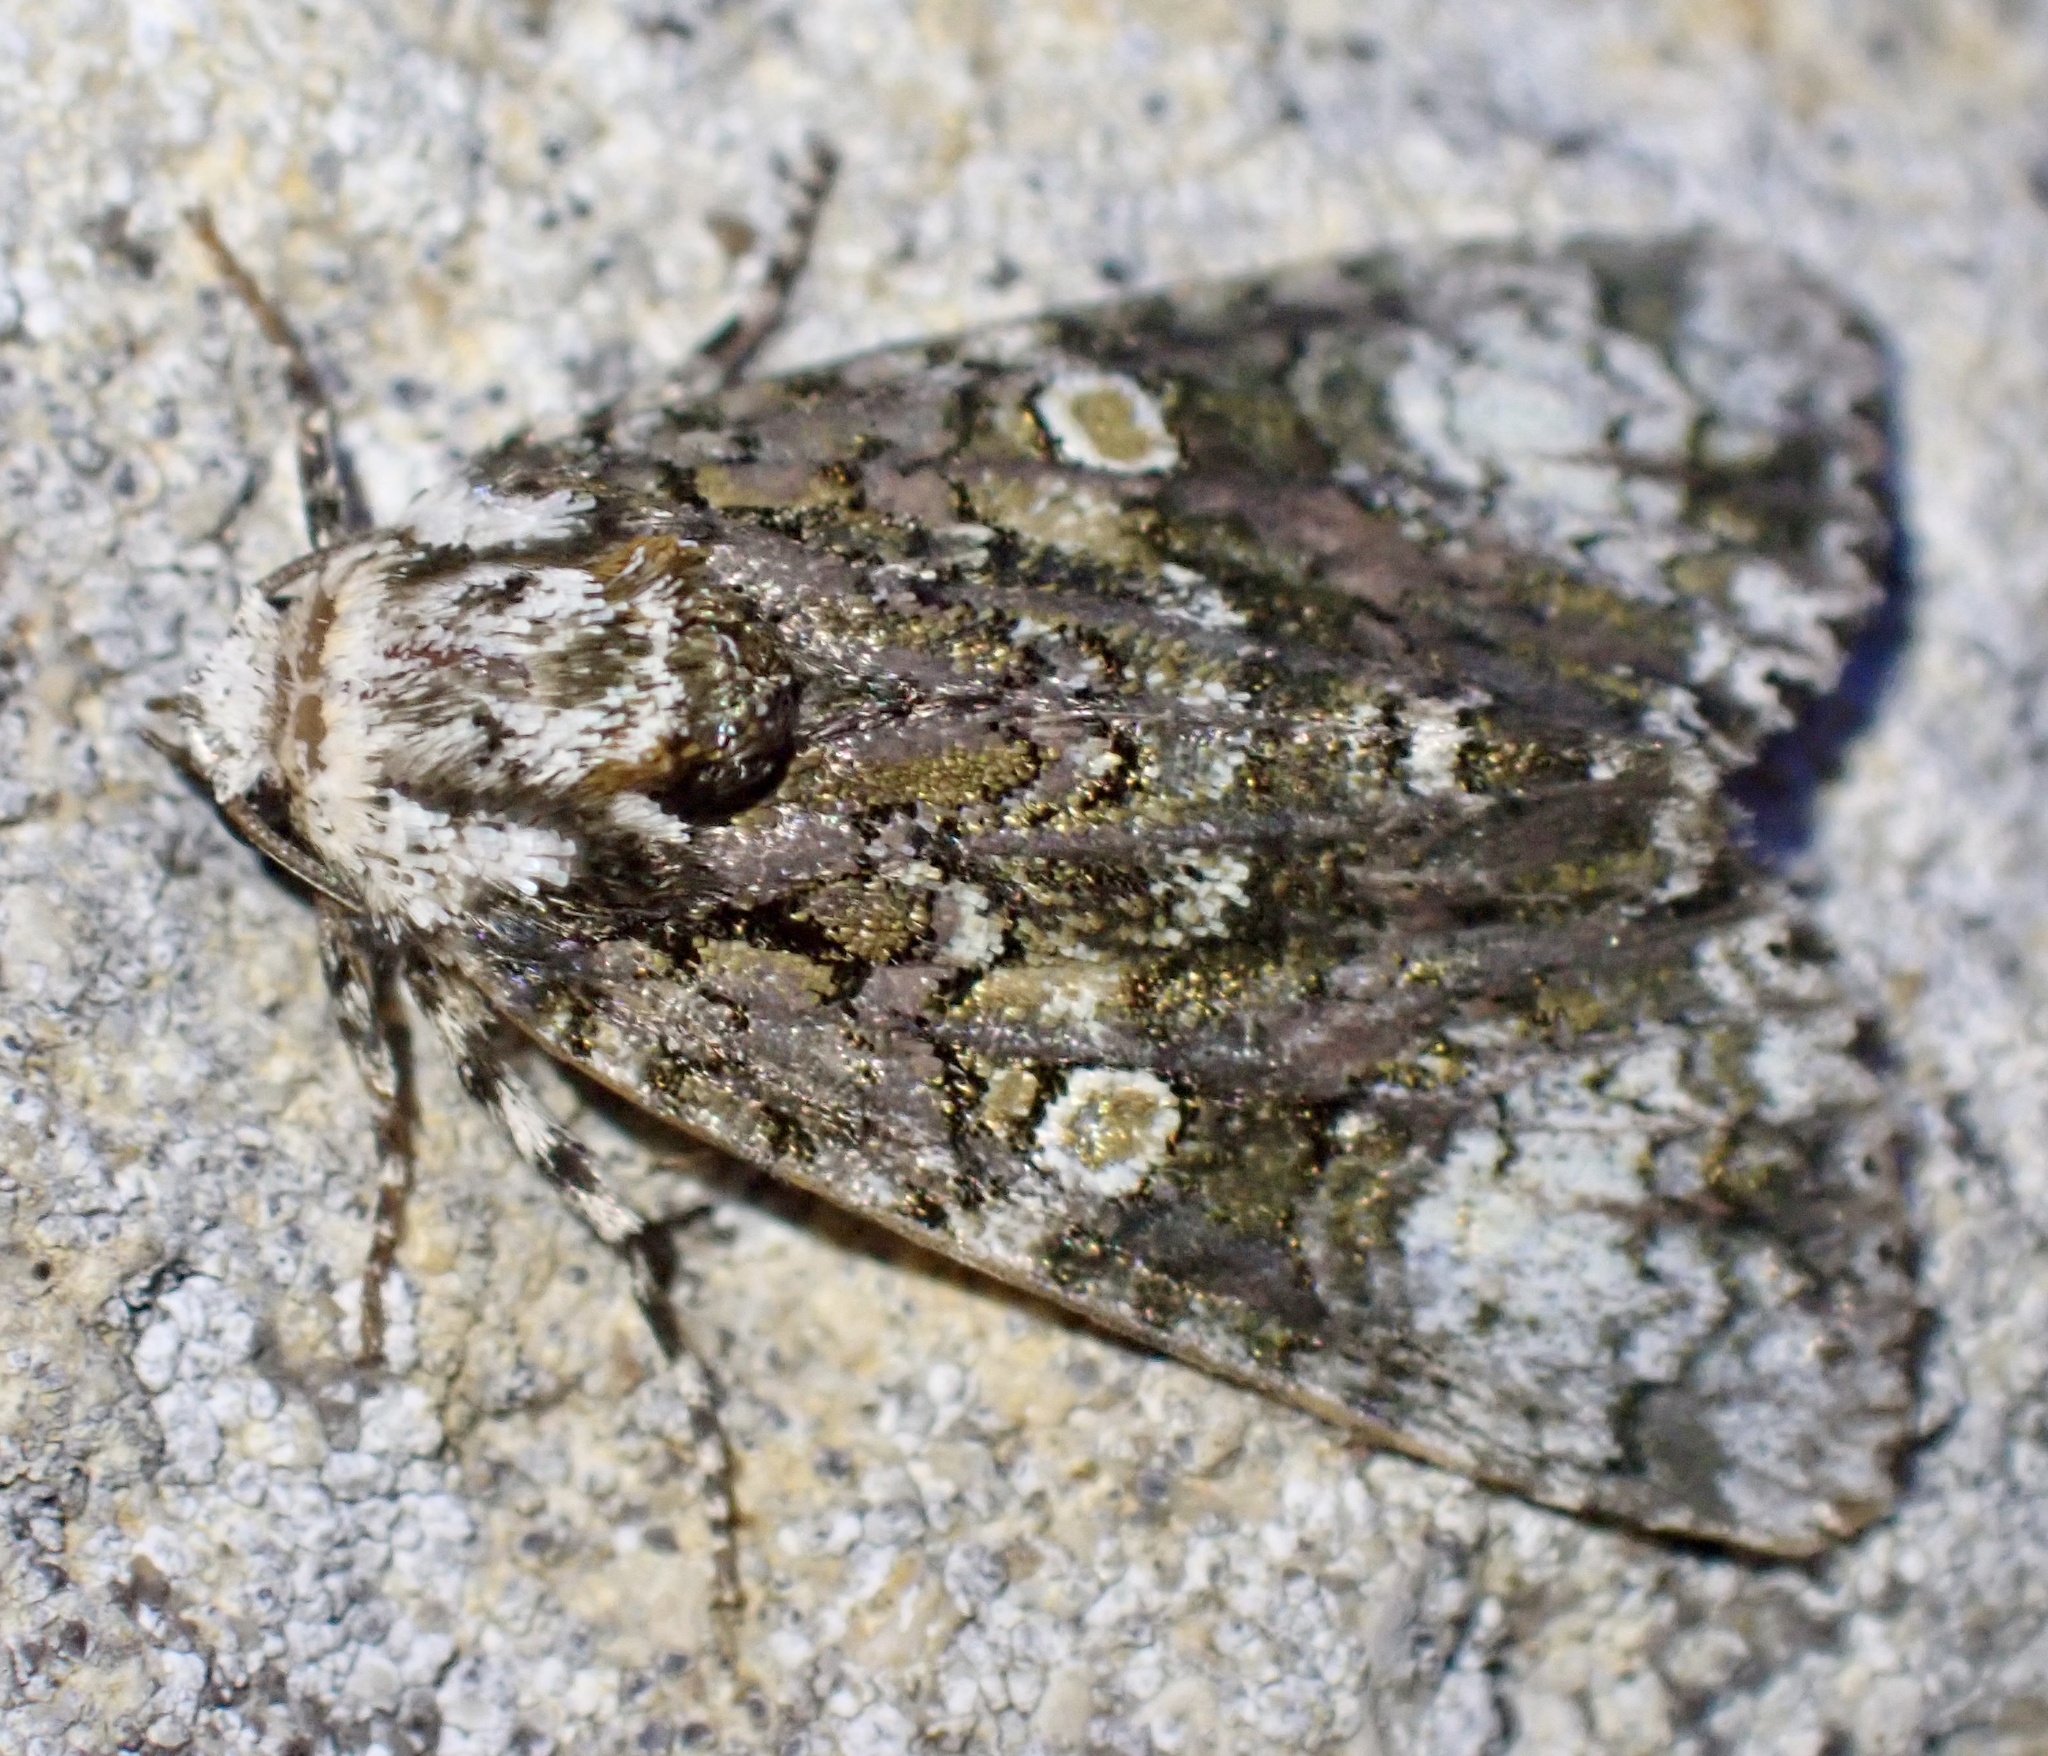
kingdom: Animalia
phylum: Arthropoda
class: Insecta
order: Lepidoptera
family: Noctuidae
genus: Craniophora
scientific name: Craniophora ligustri
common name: Coronet
